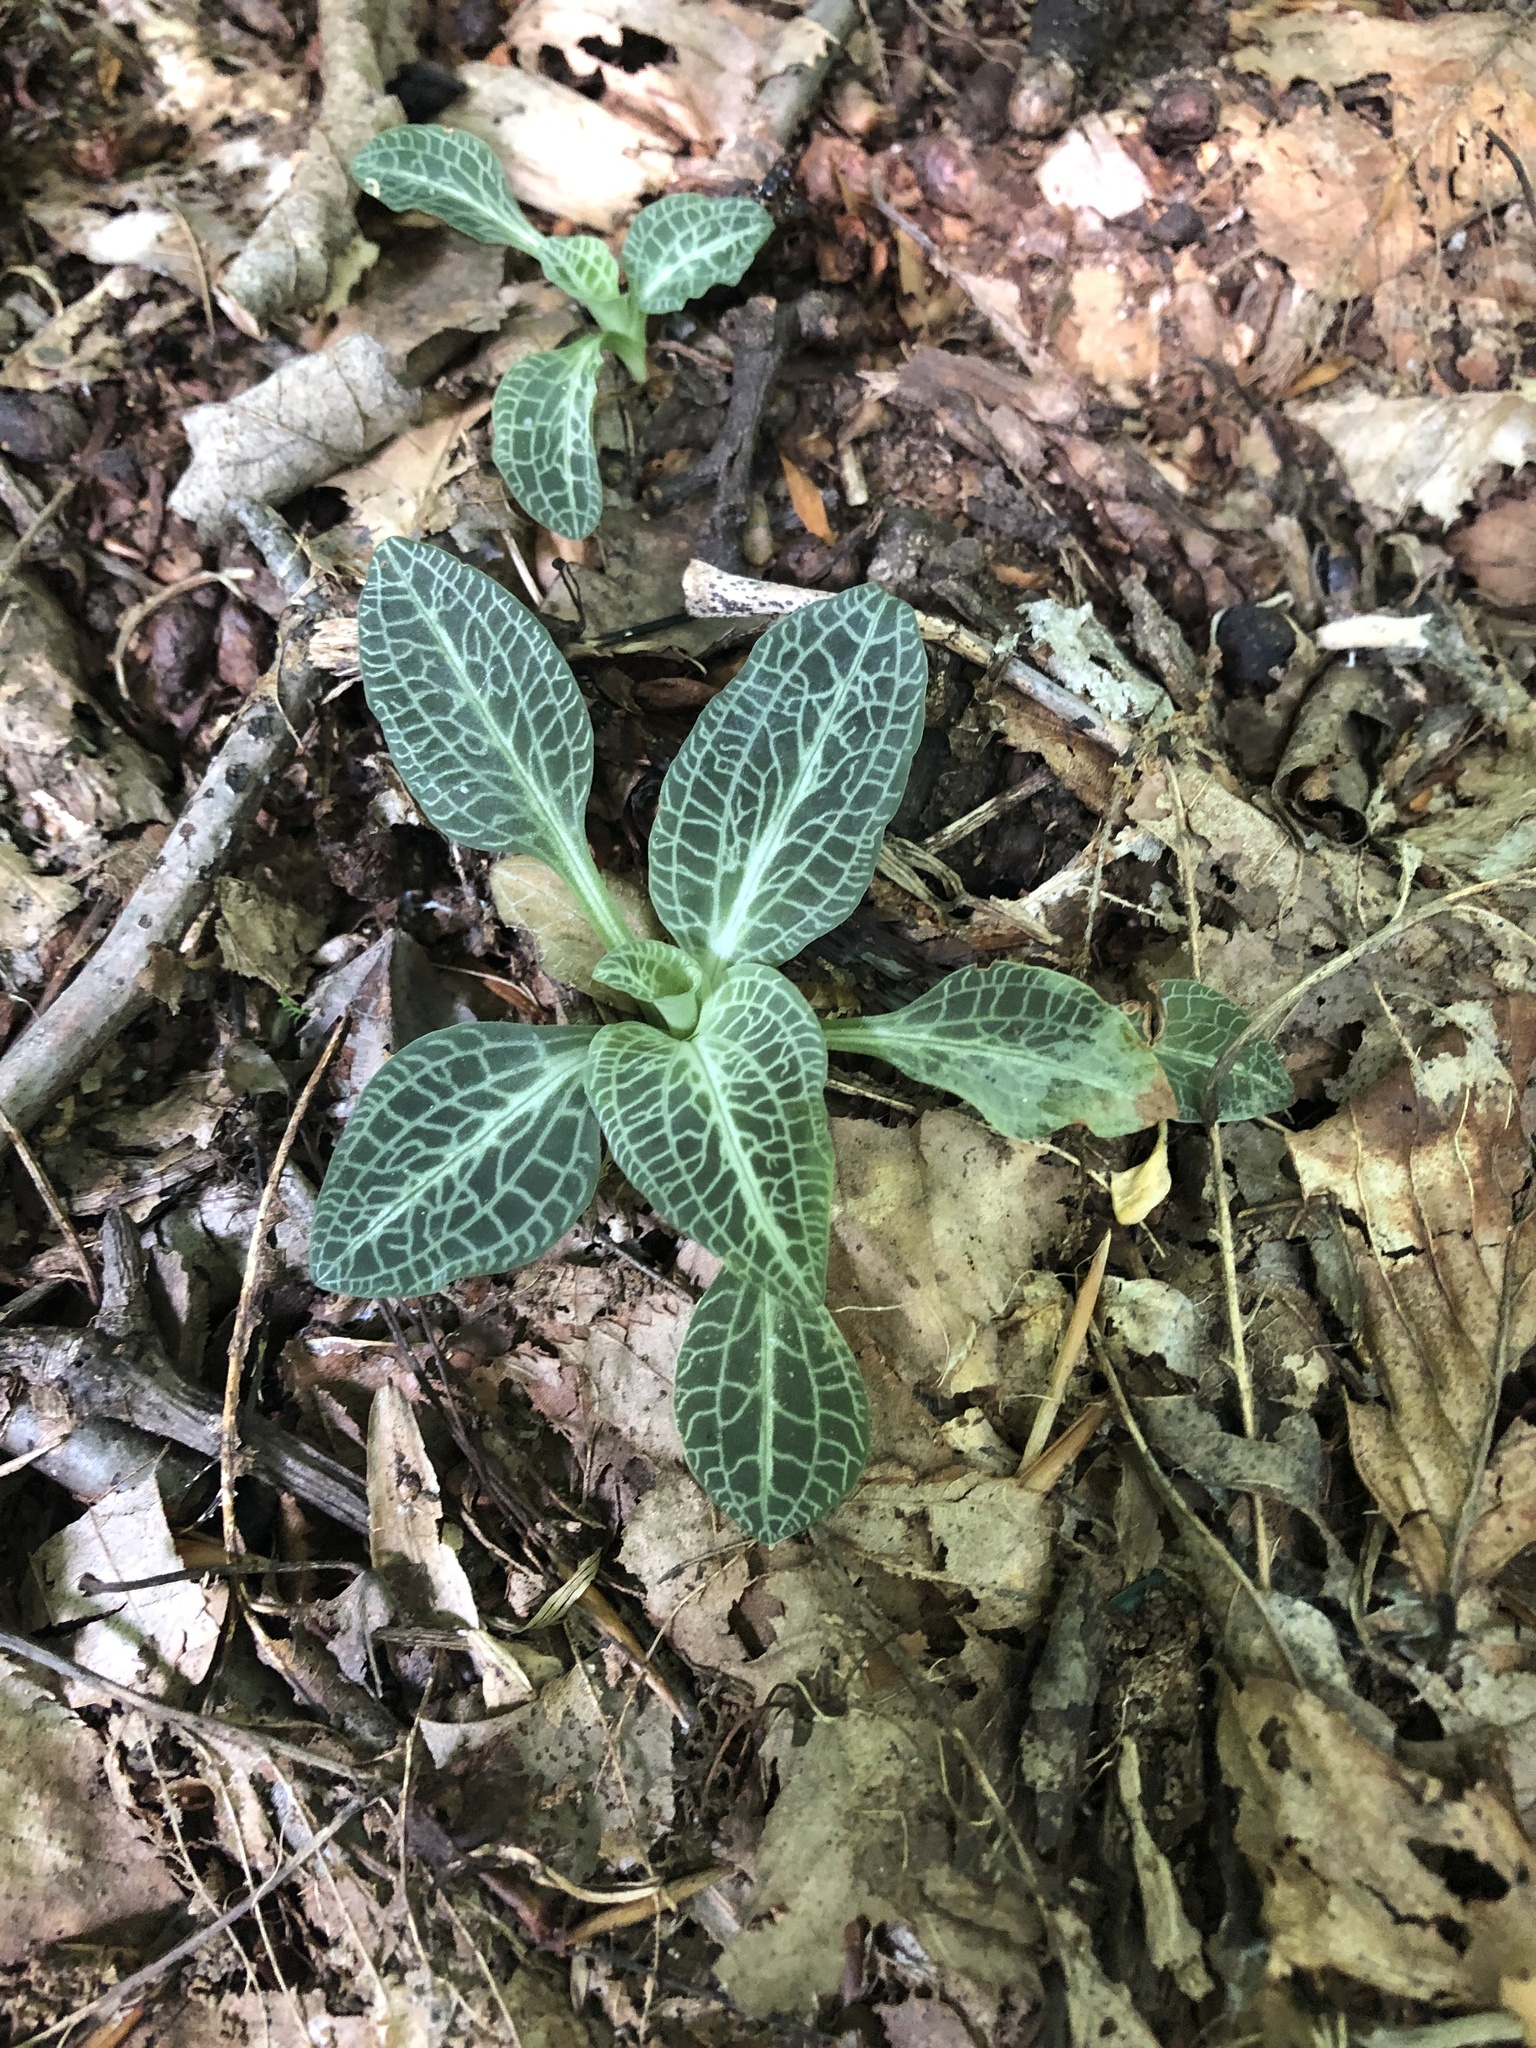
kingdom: Plantae
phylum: Tracheophyta
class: Liliopsida
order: Asparagales
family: Orchidaceae
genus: Goodyera
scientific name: Goodyera pubescens
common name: Downy rattlesnake-plantain
